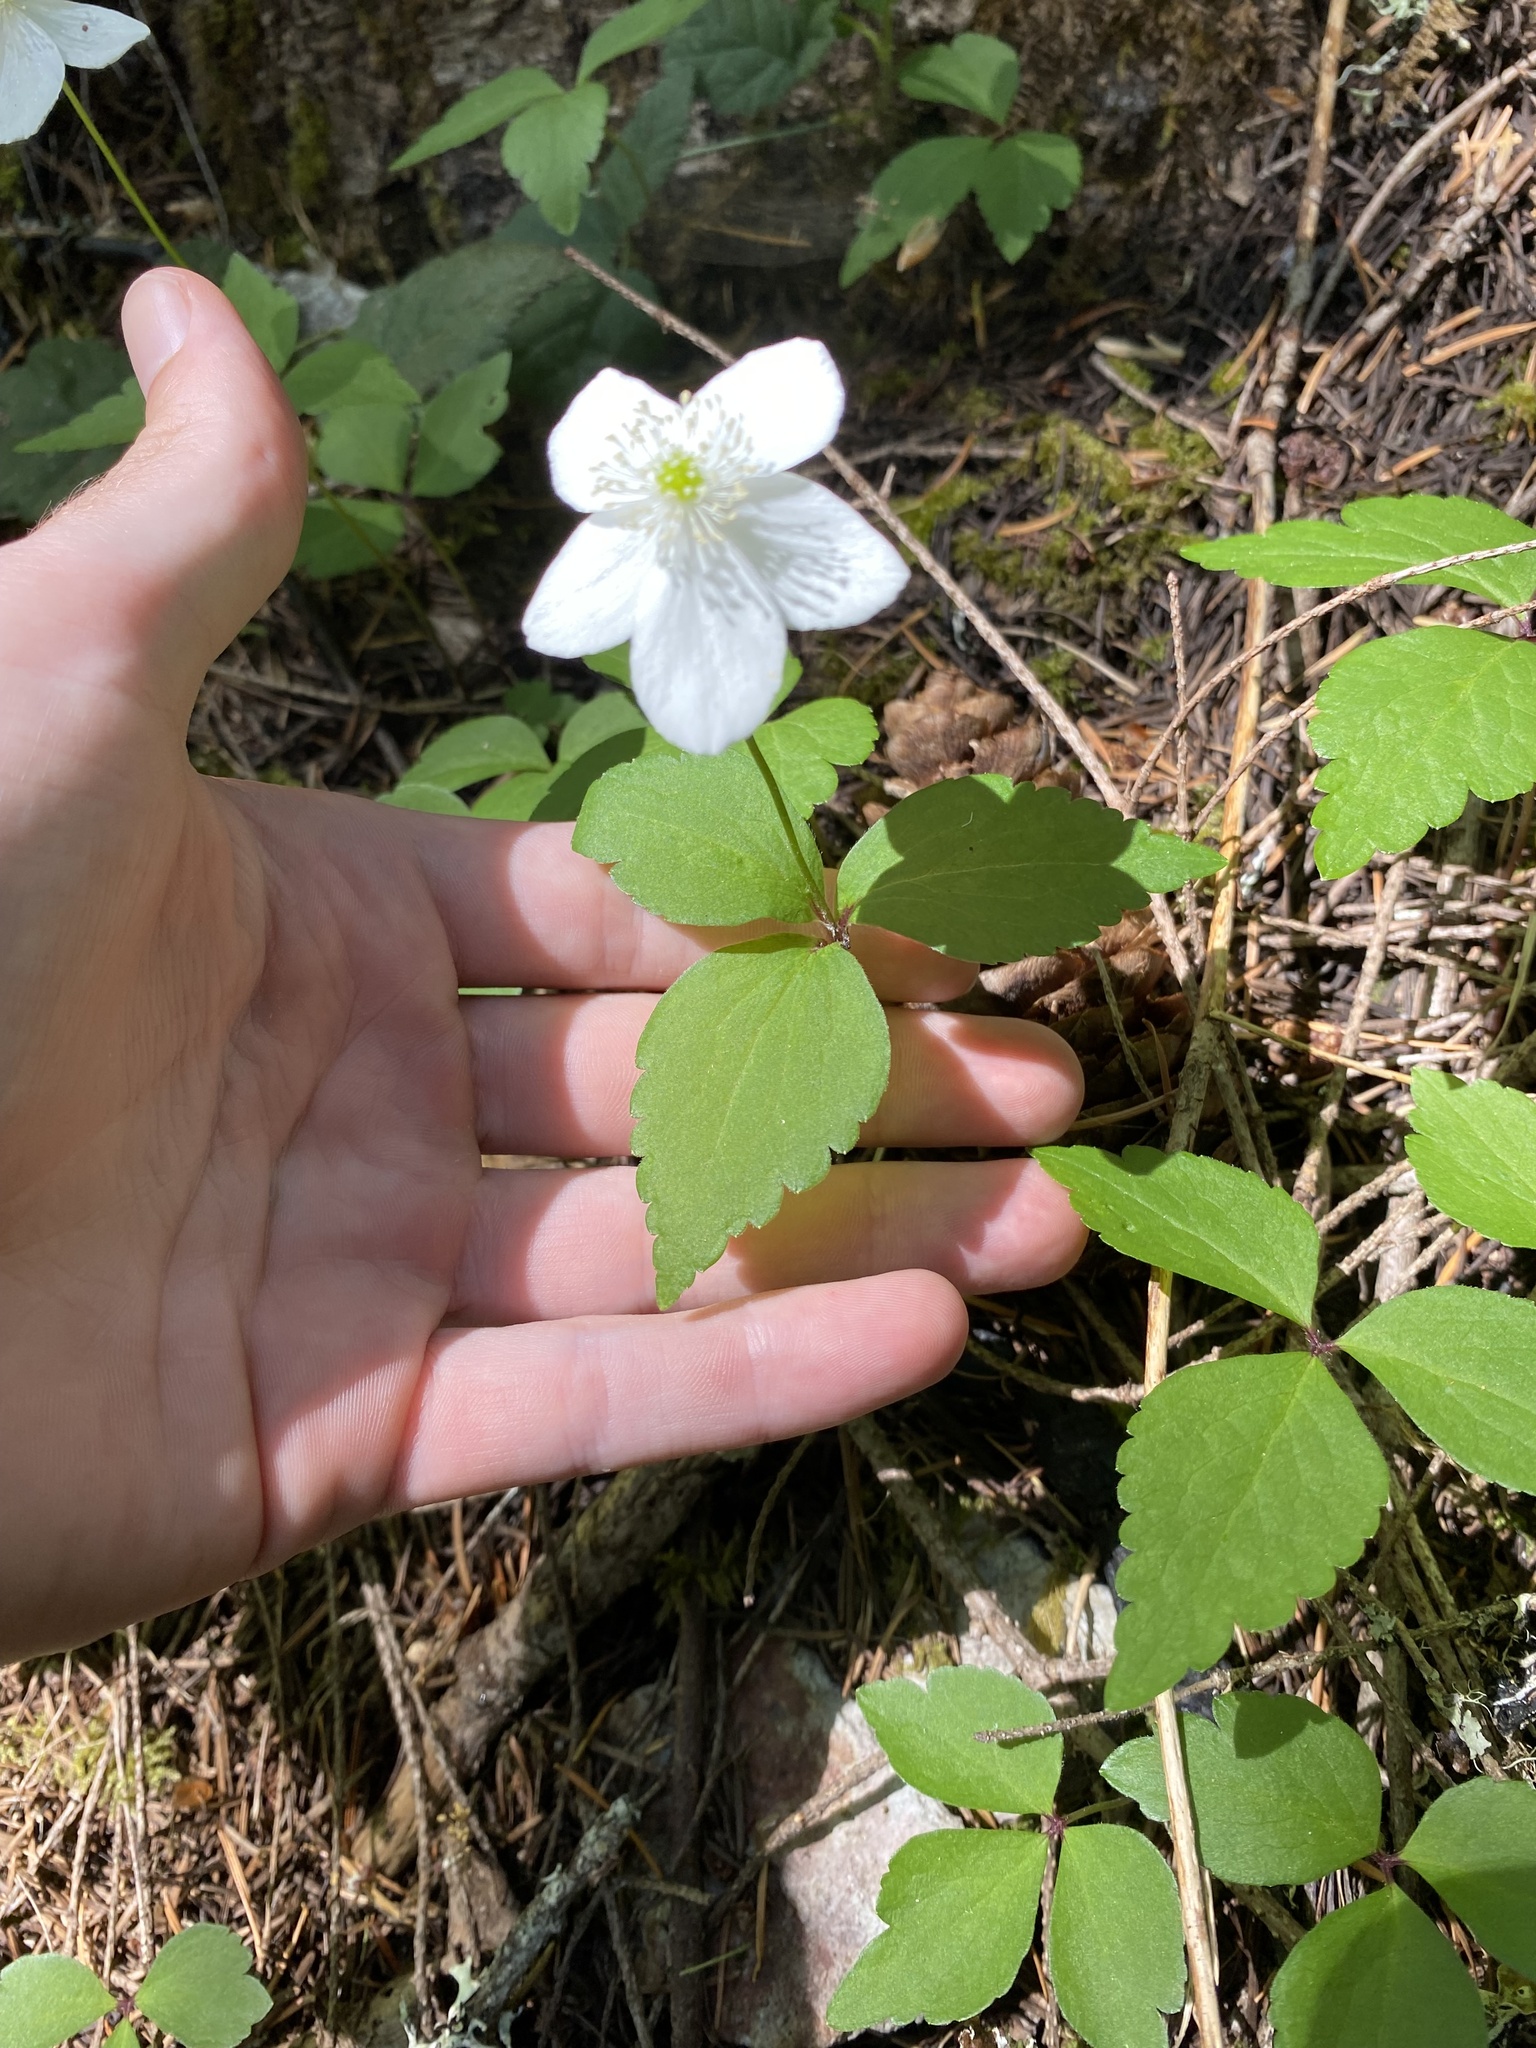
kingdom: Plantae
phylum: Tracheophyta
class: Magnoliopsida
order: Ranunculales
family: Ranunculaceae
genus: Anemonastrum
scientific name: Anemonastrum deltoideum
